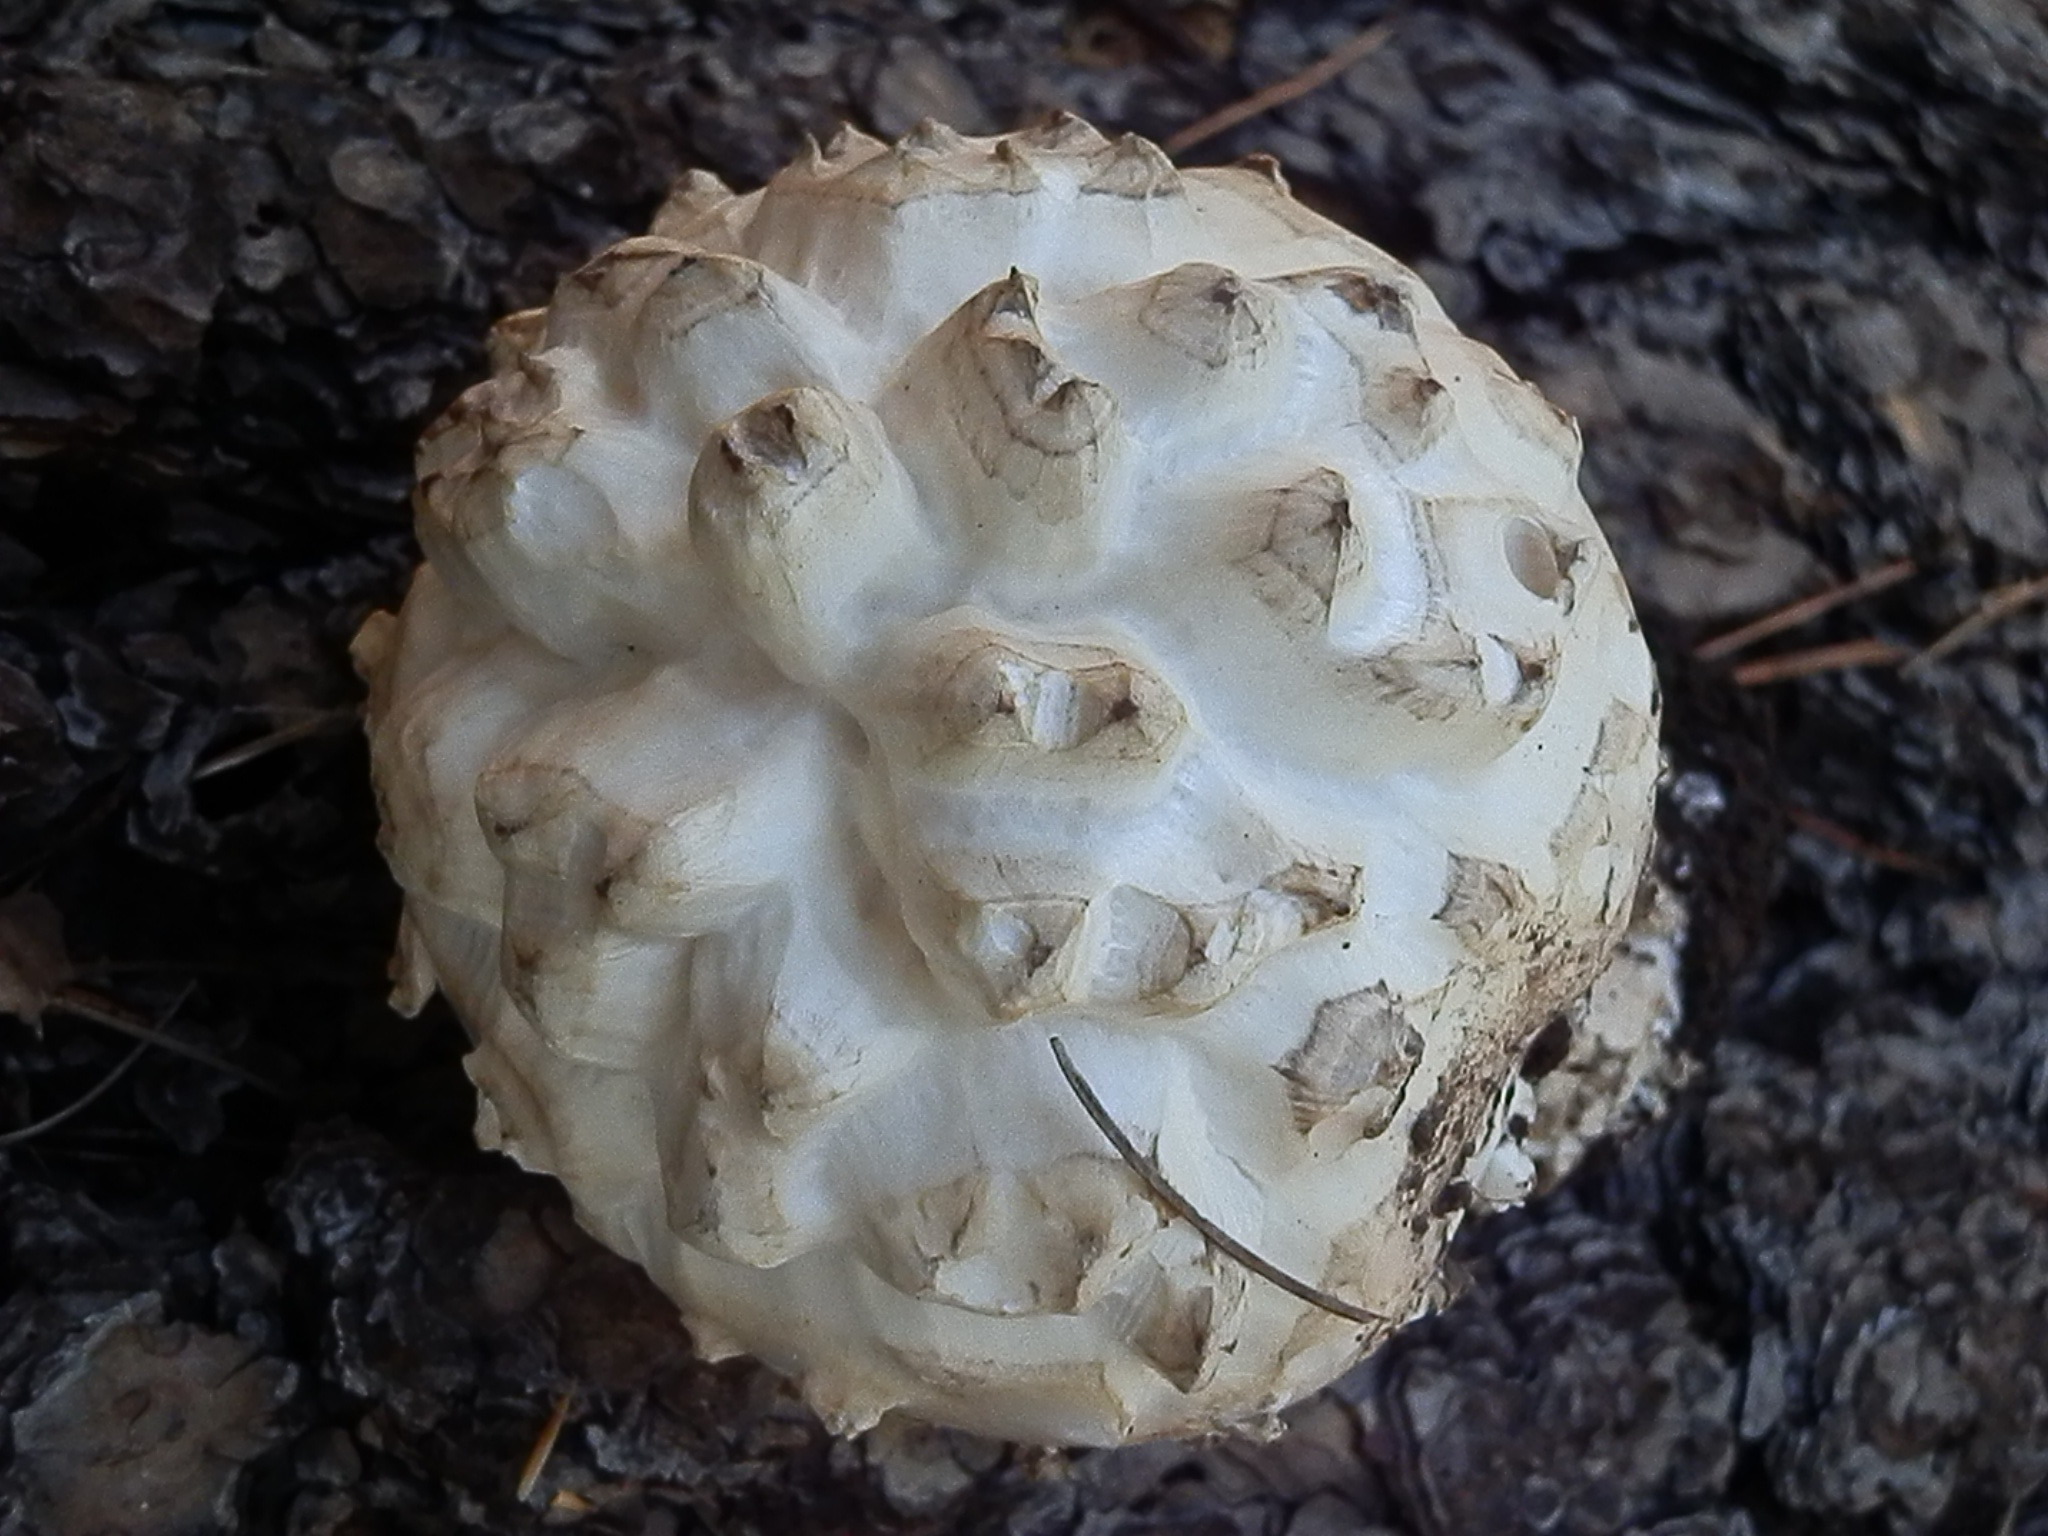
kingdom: Fungi
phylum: Basidiomycota
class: Agaricomycetes
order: Agaricales
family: Amanitaceae
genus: Amanita
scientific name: Amanita magniverrucata
